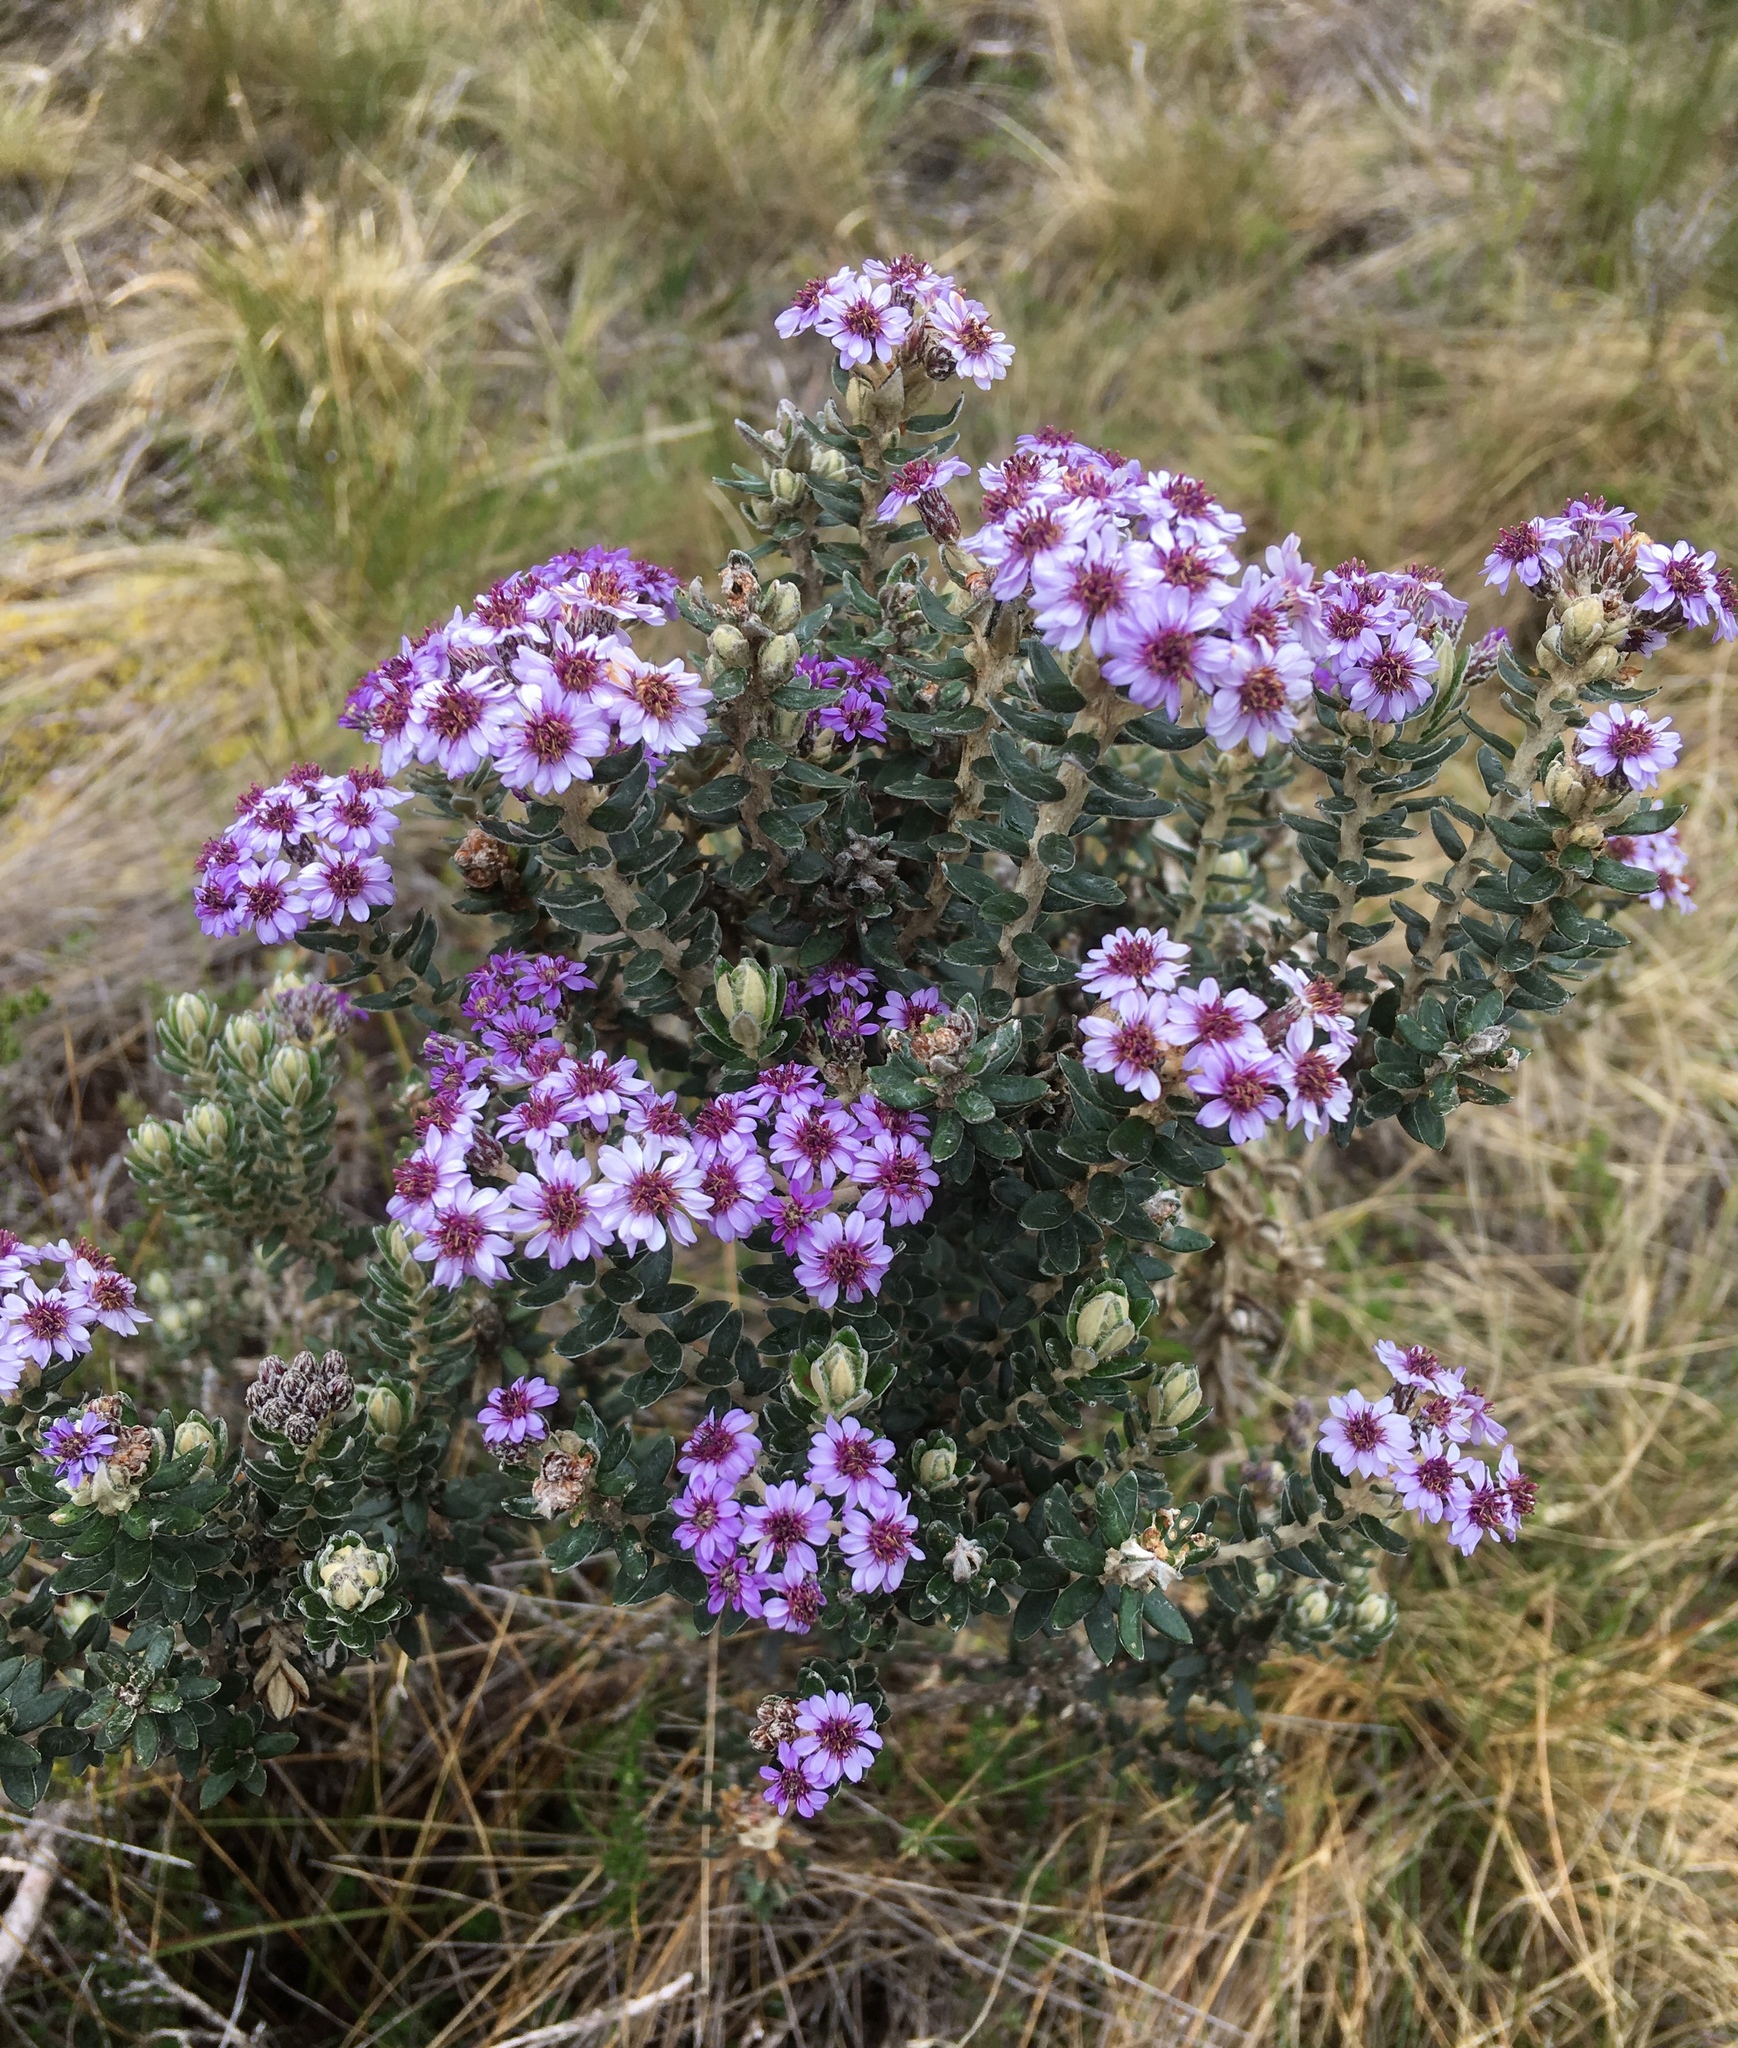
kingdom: Plantae
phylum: Tracheophyta
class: Magnoliopsida
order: Asterales
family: Asteraceae
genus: Linochilus
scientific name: Linochilus phylicoides
